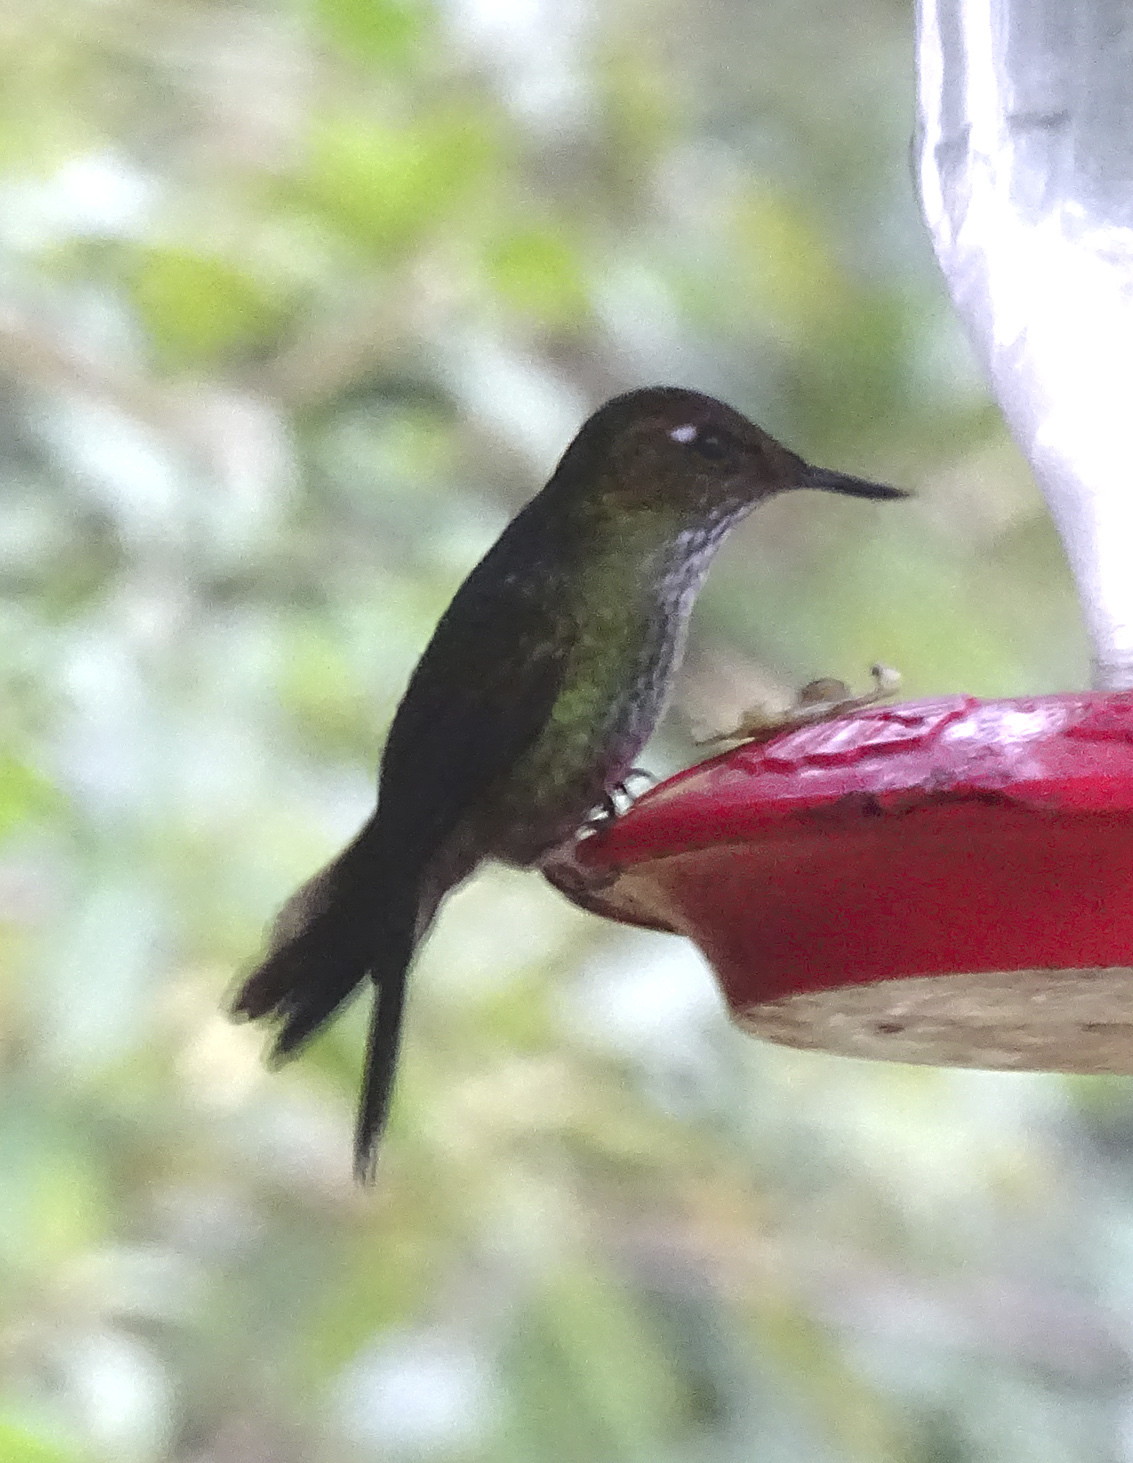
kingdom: Animalia
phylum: Chordata
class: Aves
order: Apodiformes
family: Trochilidae
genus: Opisthoprora
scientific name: Opisthoprora euryptera
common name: Mountain avocetbill
